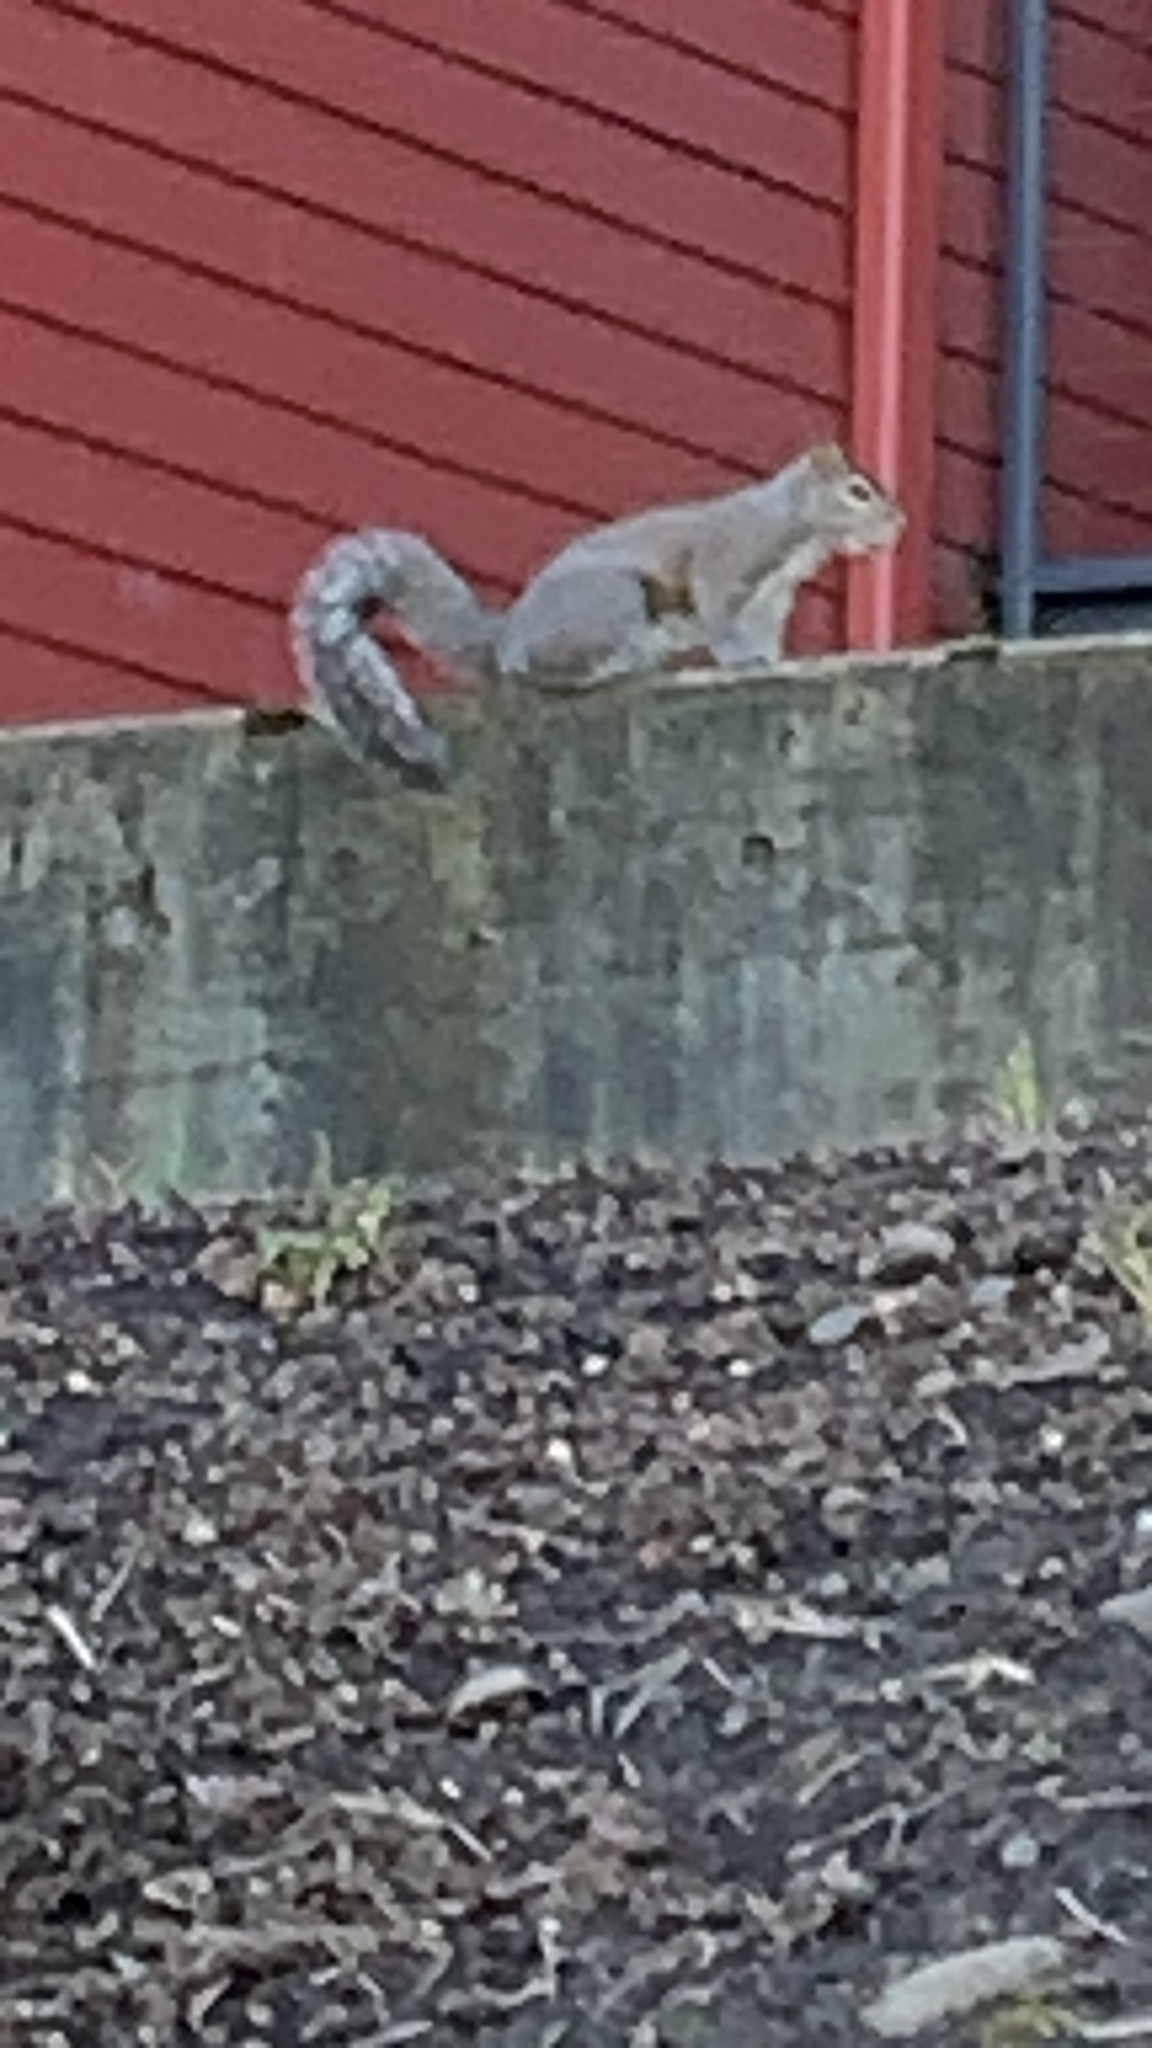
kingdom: Animalia
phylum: Chordata
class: Mammalia
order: Rodentia
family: Sciuridae
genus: Sciurus
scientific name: Sciurus carolinensis
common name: Eastern gray squirrel
